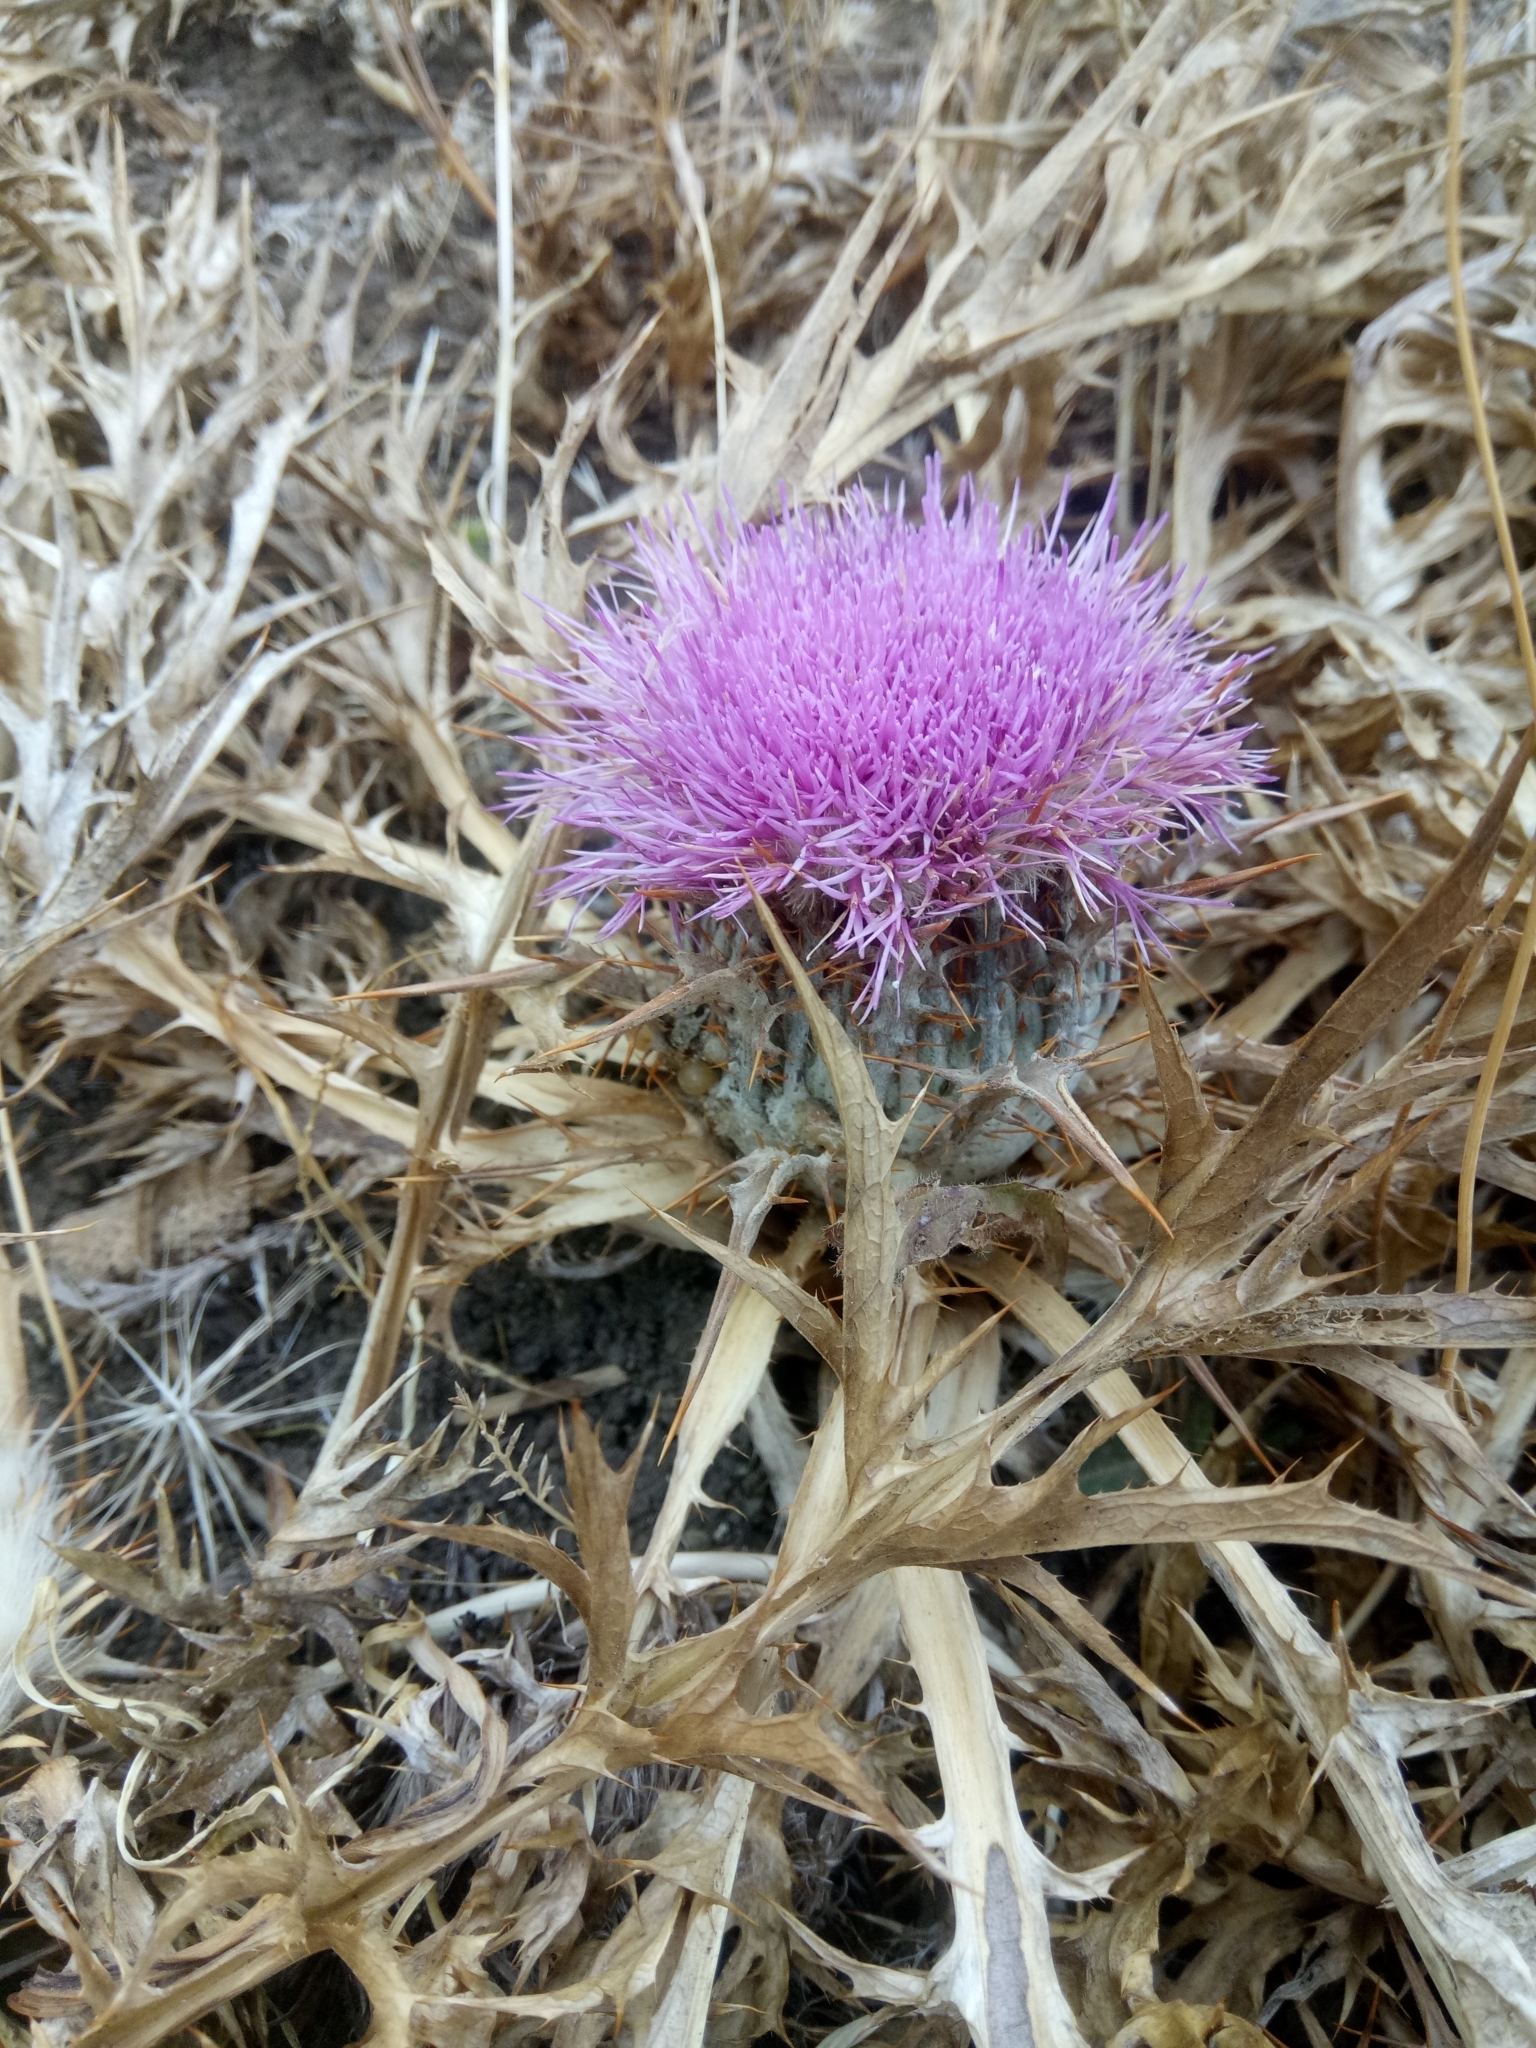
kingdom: Plantae
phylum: Tracheophyta
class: Magnoliopsida
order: Asterales
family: Asteraceae
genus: Chamaeleon
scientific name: Chamaeleon gummifer
